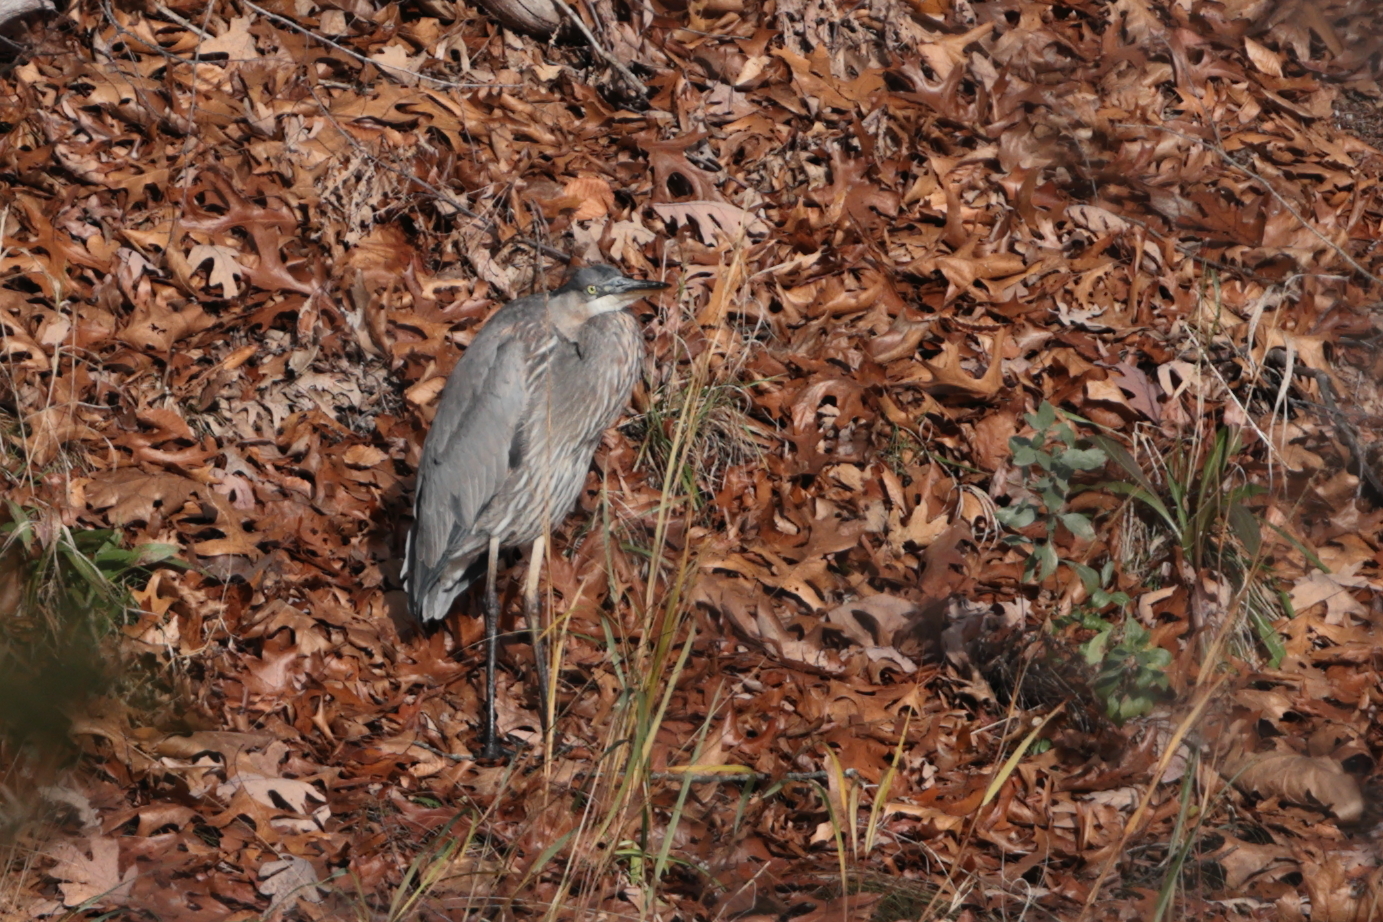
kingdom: Animalia
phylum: Chordata
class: Aves
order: Pelecaniformes
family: Ardeidae
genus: Ardea
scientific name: Ardea herodias
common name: Great blue heron
